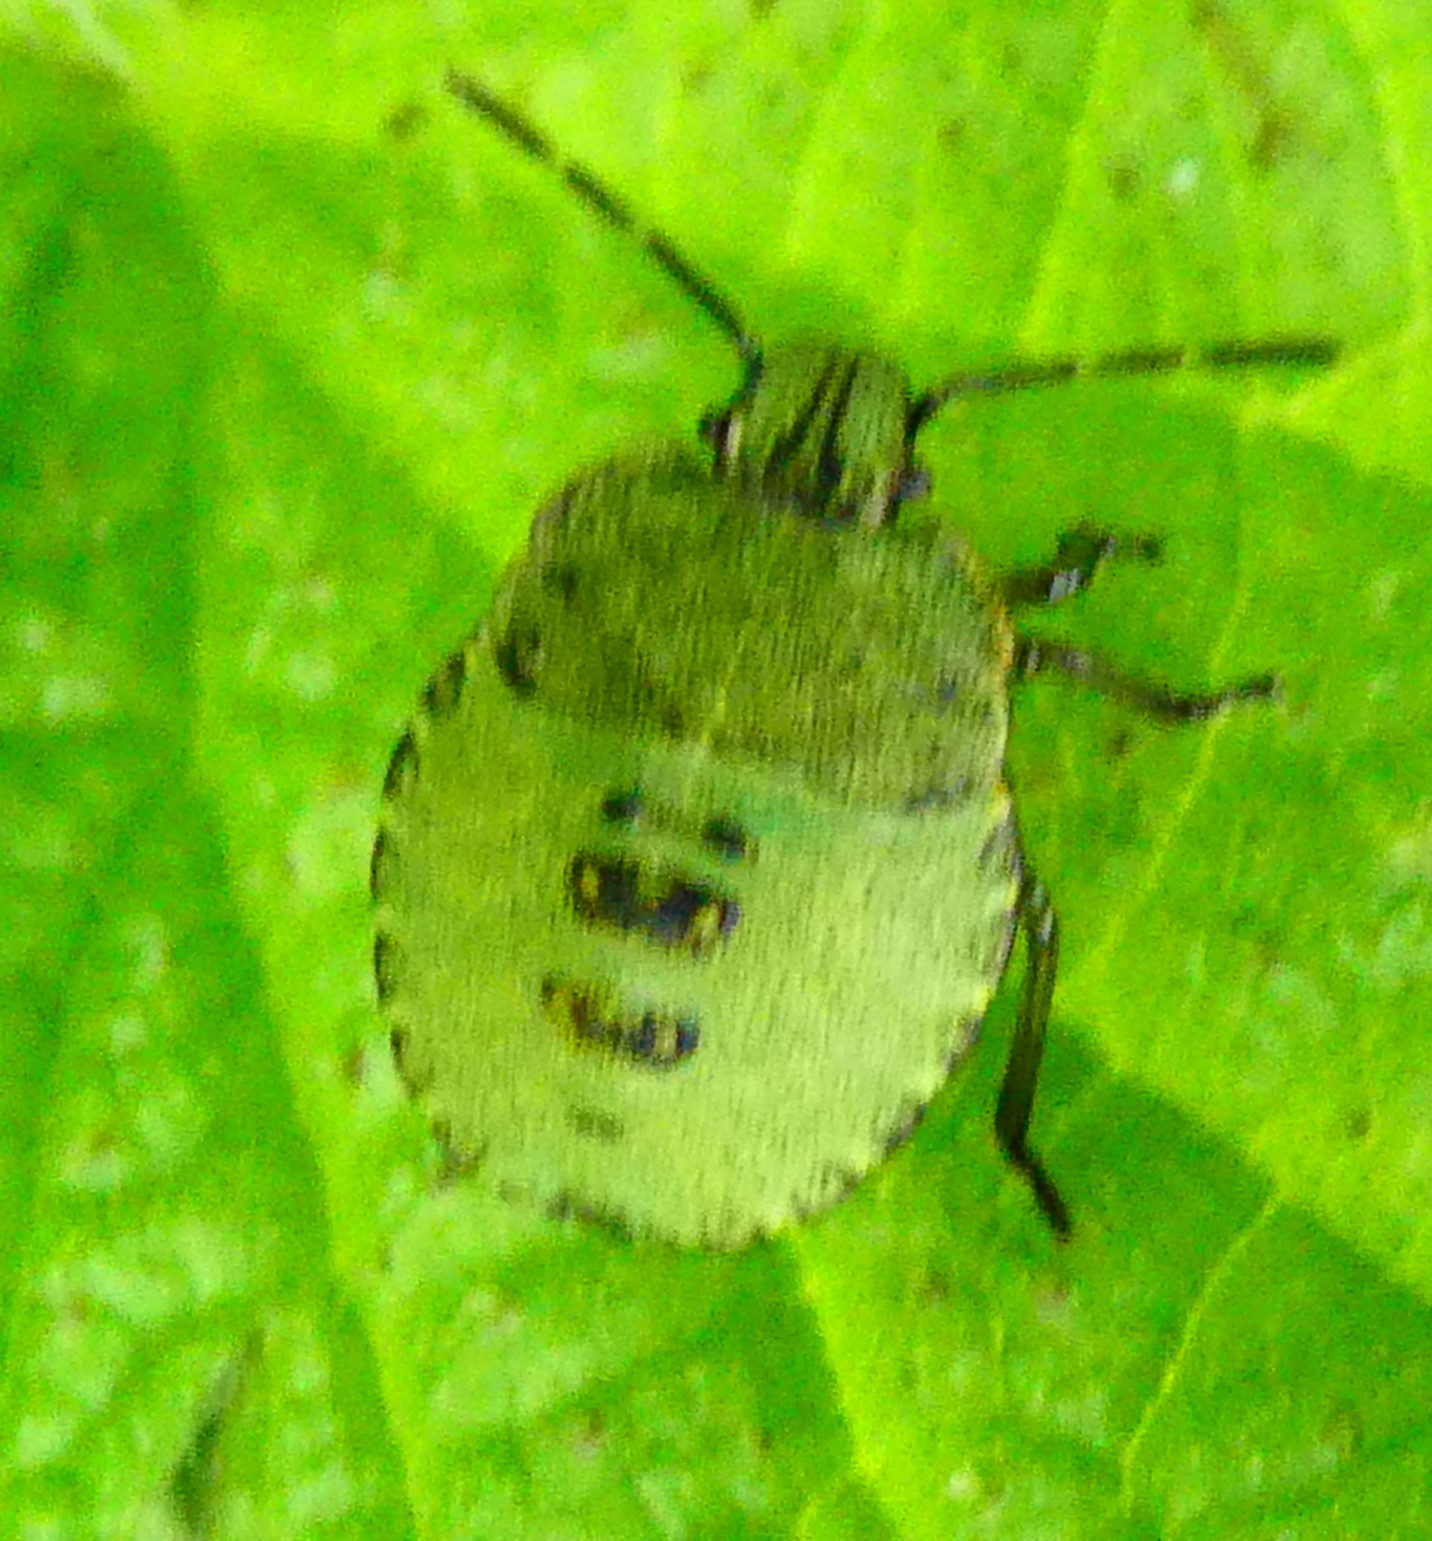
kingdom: Animalia
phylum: Arthropoda
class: Insecta
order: Hemiptera
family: Pentatomidae
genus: Palomena
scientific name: Palomena prasina
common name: Green shieldbug
